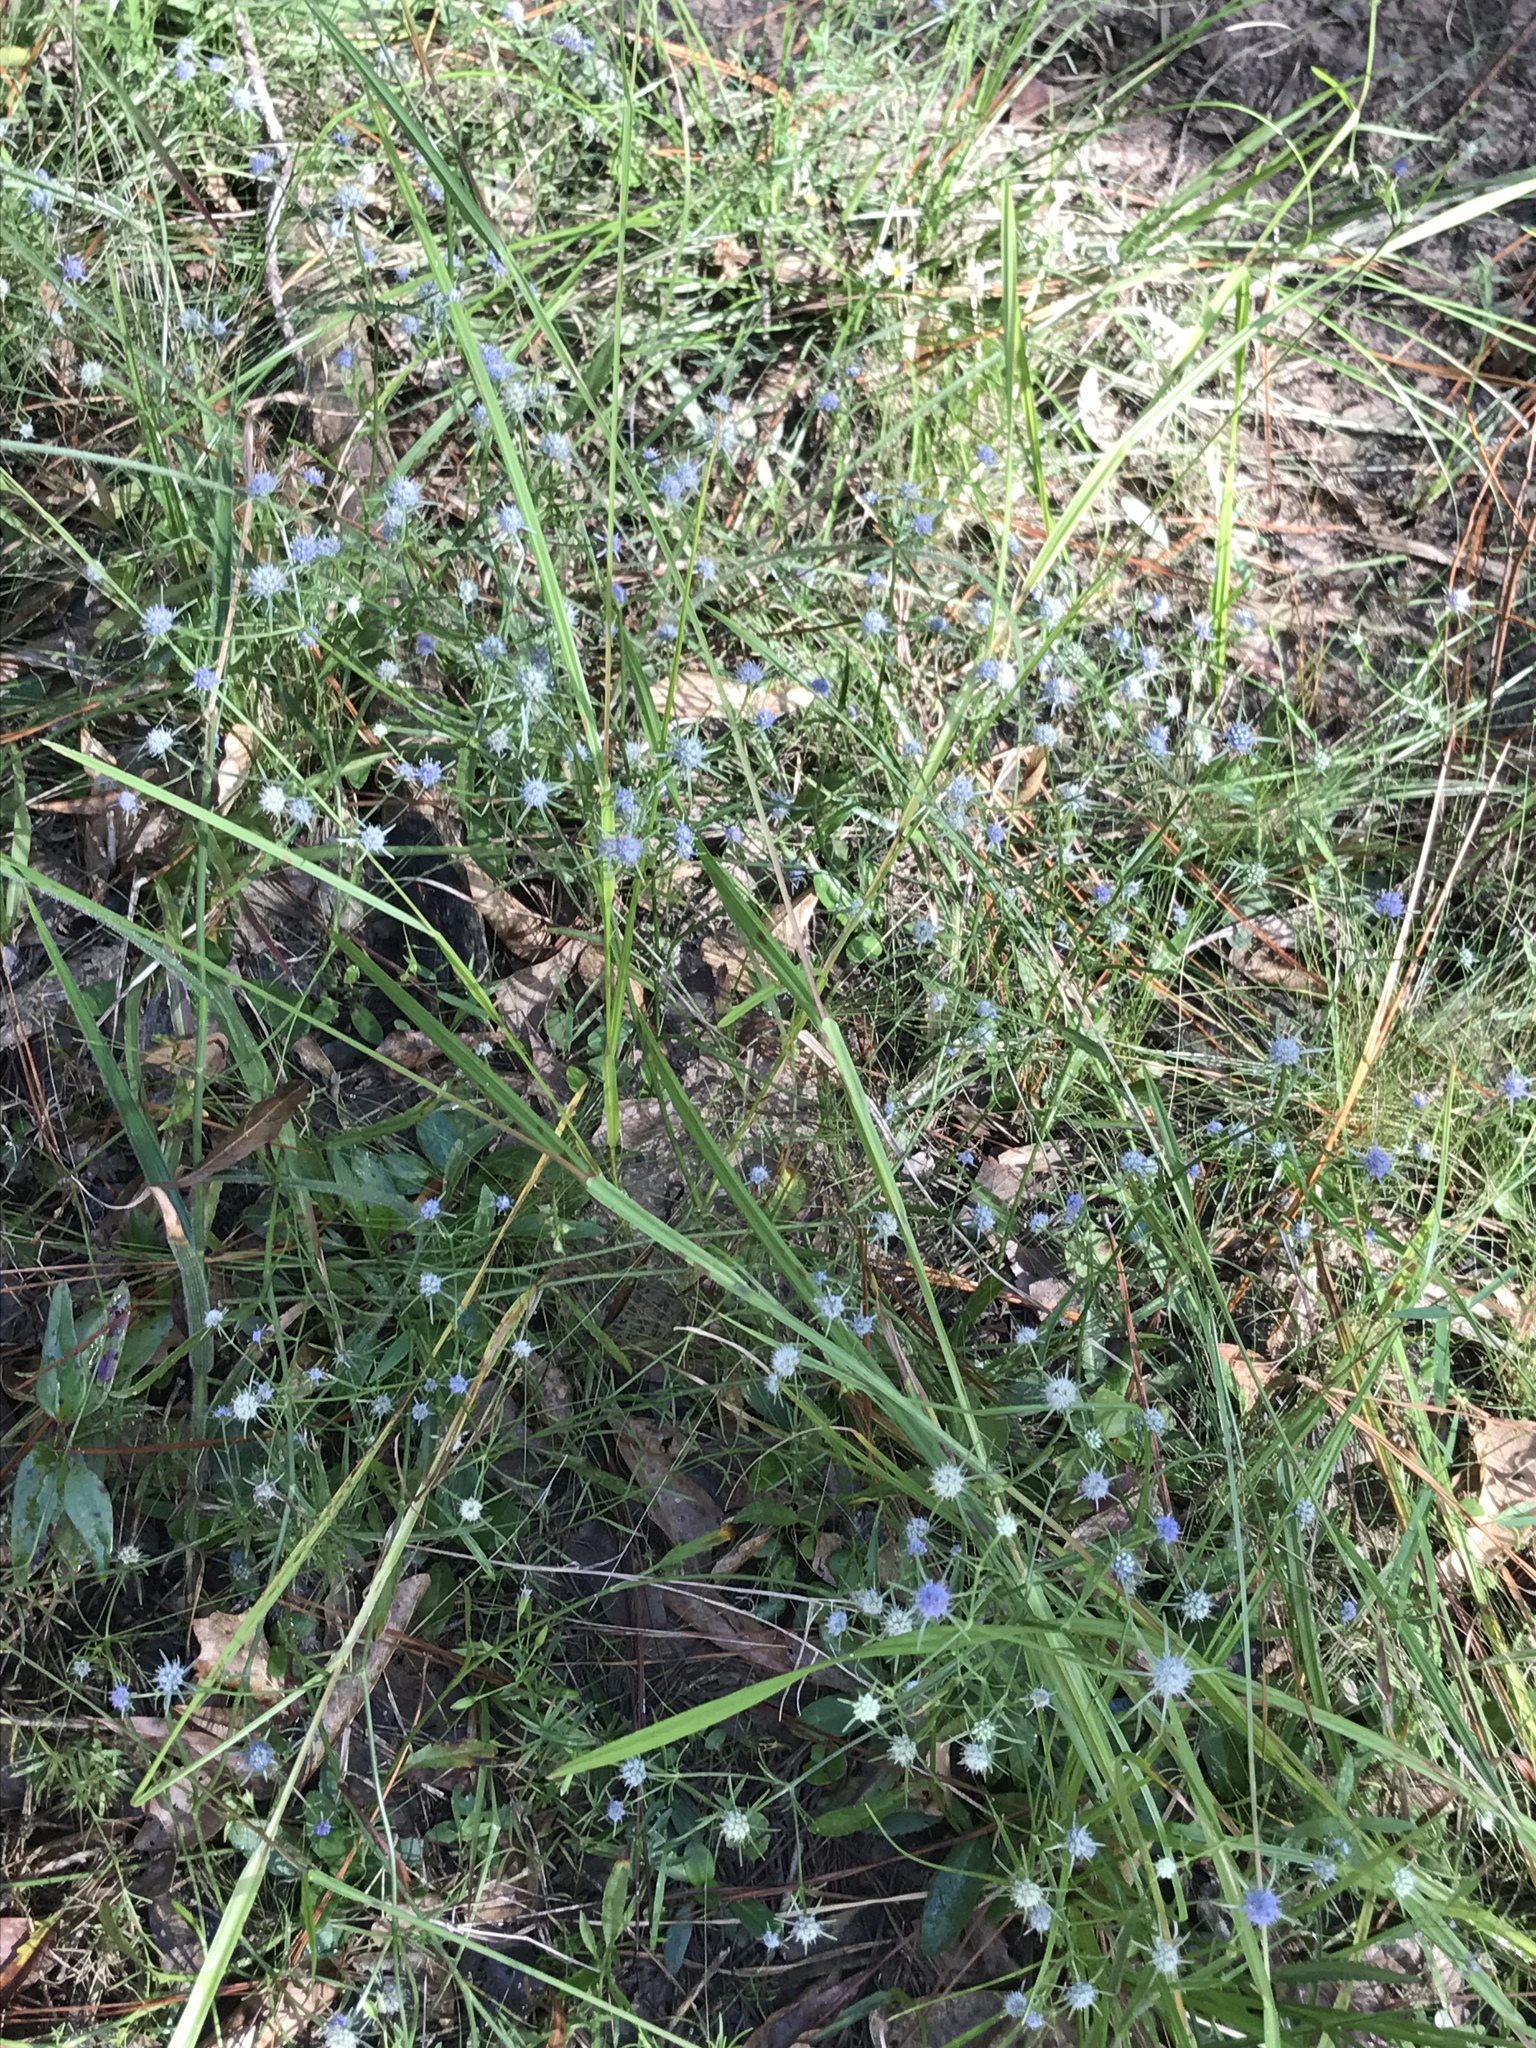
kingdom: Plantae
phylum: Tracheophyta
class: Magnoliopsida
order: Apiales
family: Apiaceae
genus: Eryngium
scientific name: Eryngium integrifolium
